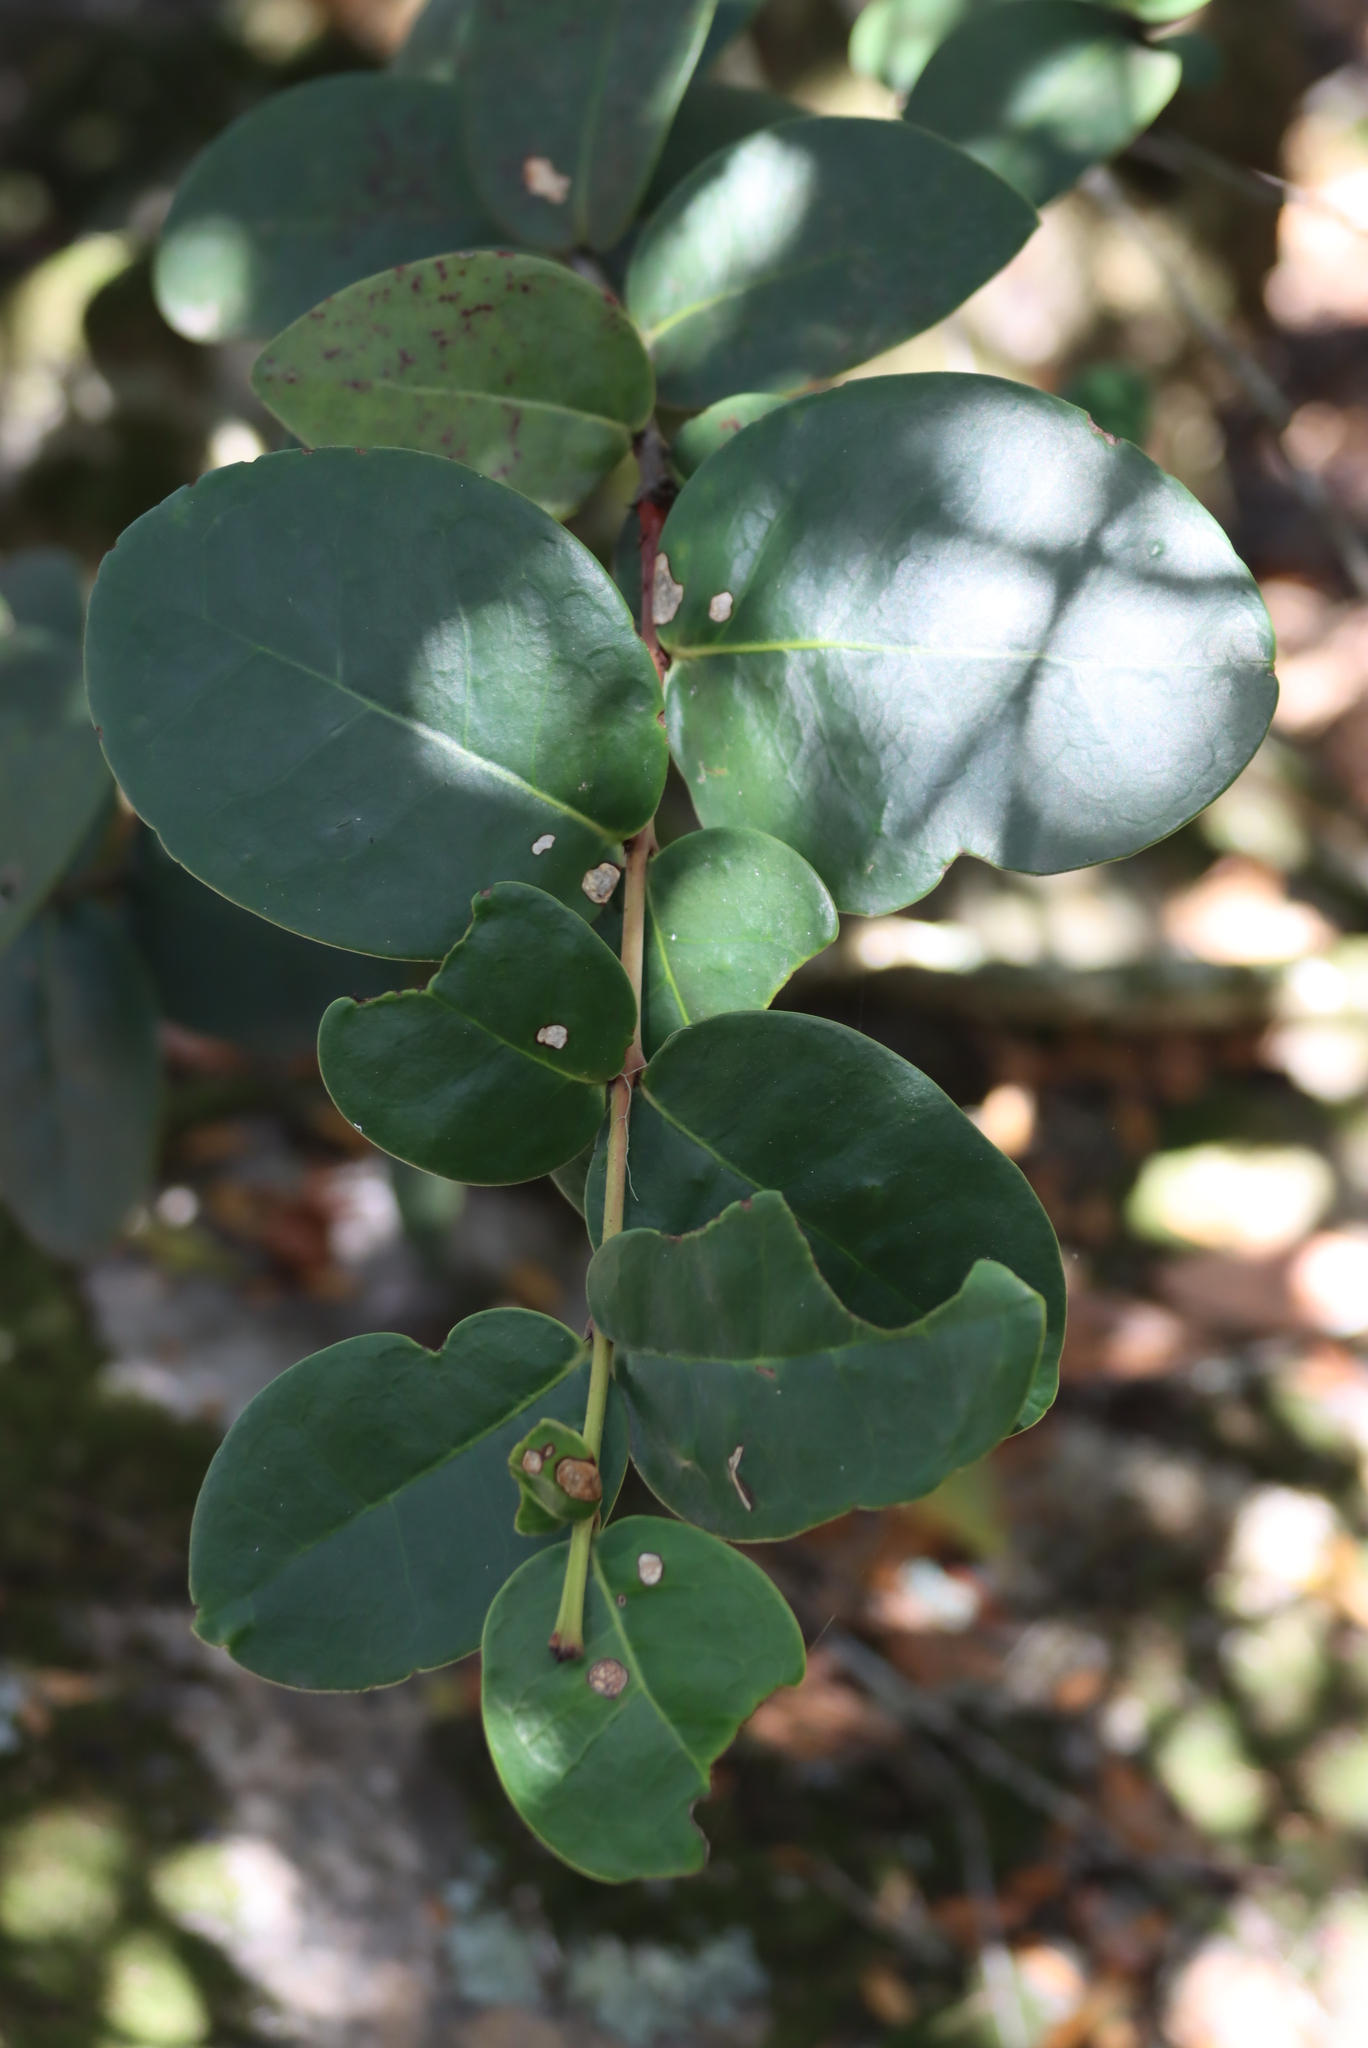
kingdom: Plantae
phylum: Tracheophyta
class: Magnoliopsida
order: Celastrales
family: Celastraceae
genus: Maurocenia
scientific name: Maurocenia frangula
